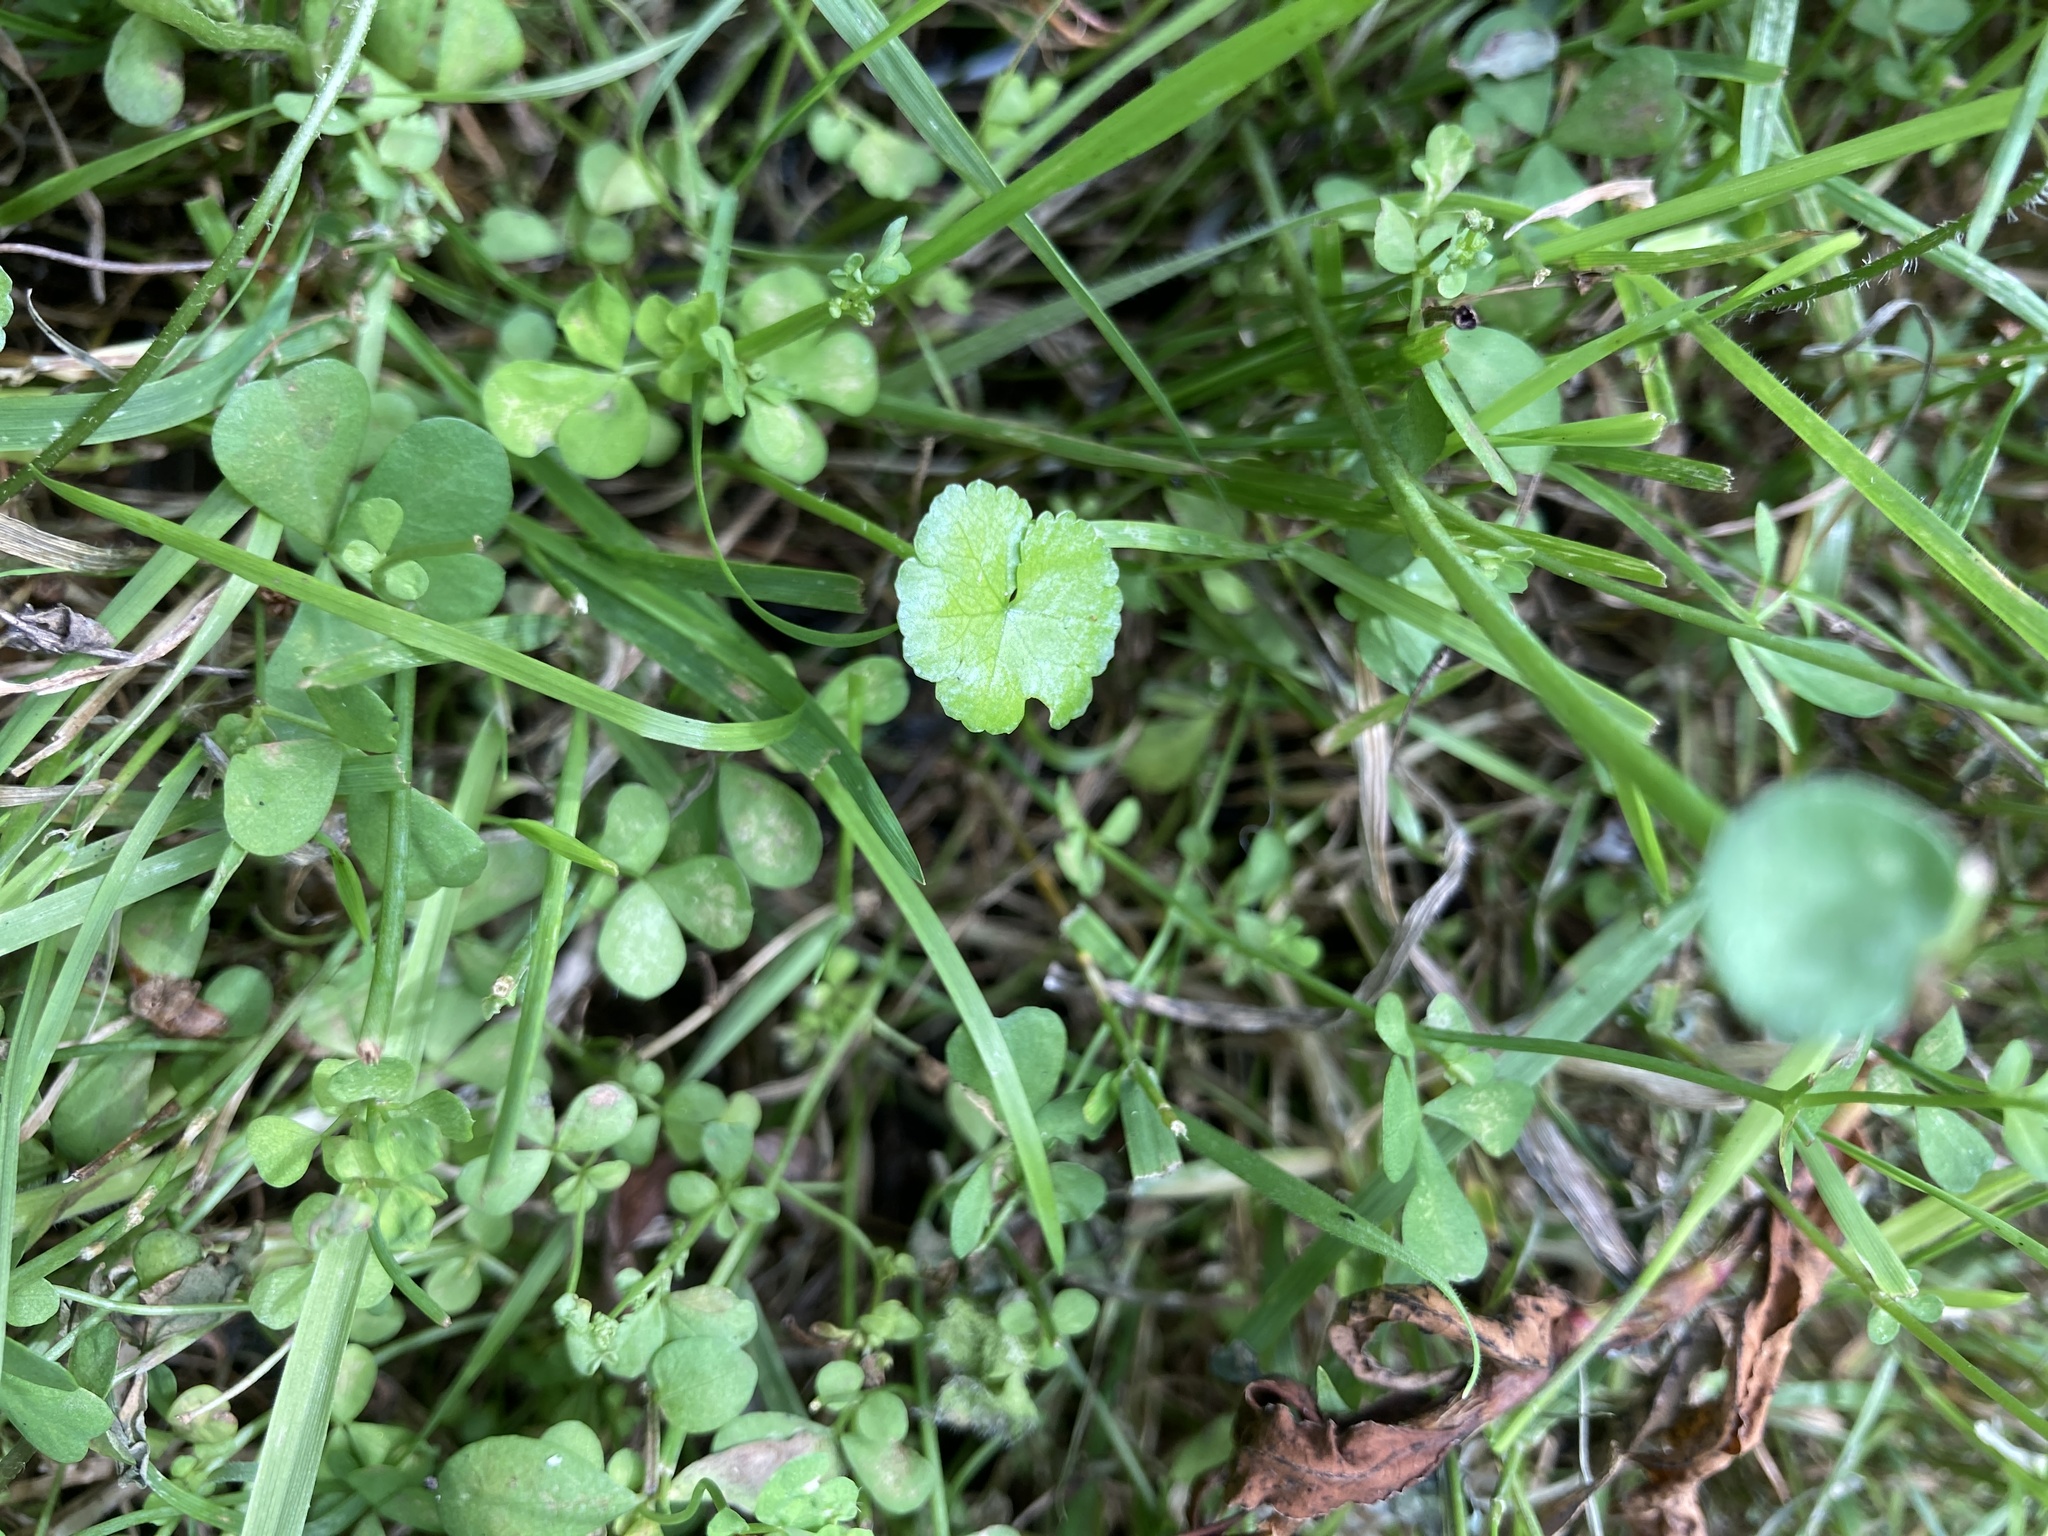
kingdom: Plantae
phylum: Tracheophyta
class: Magnoliopsida
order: Apiales
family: Araliaceae
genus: Hydrocotyle
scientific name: Hydrocotyle heteromeria
